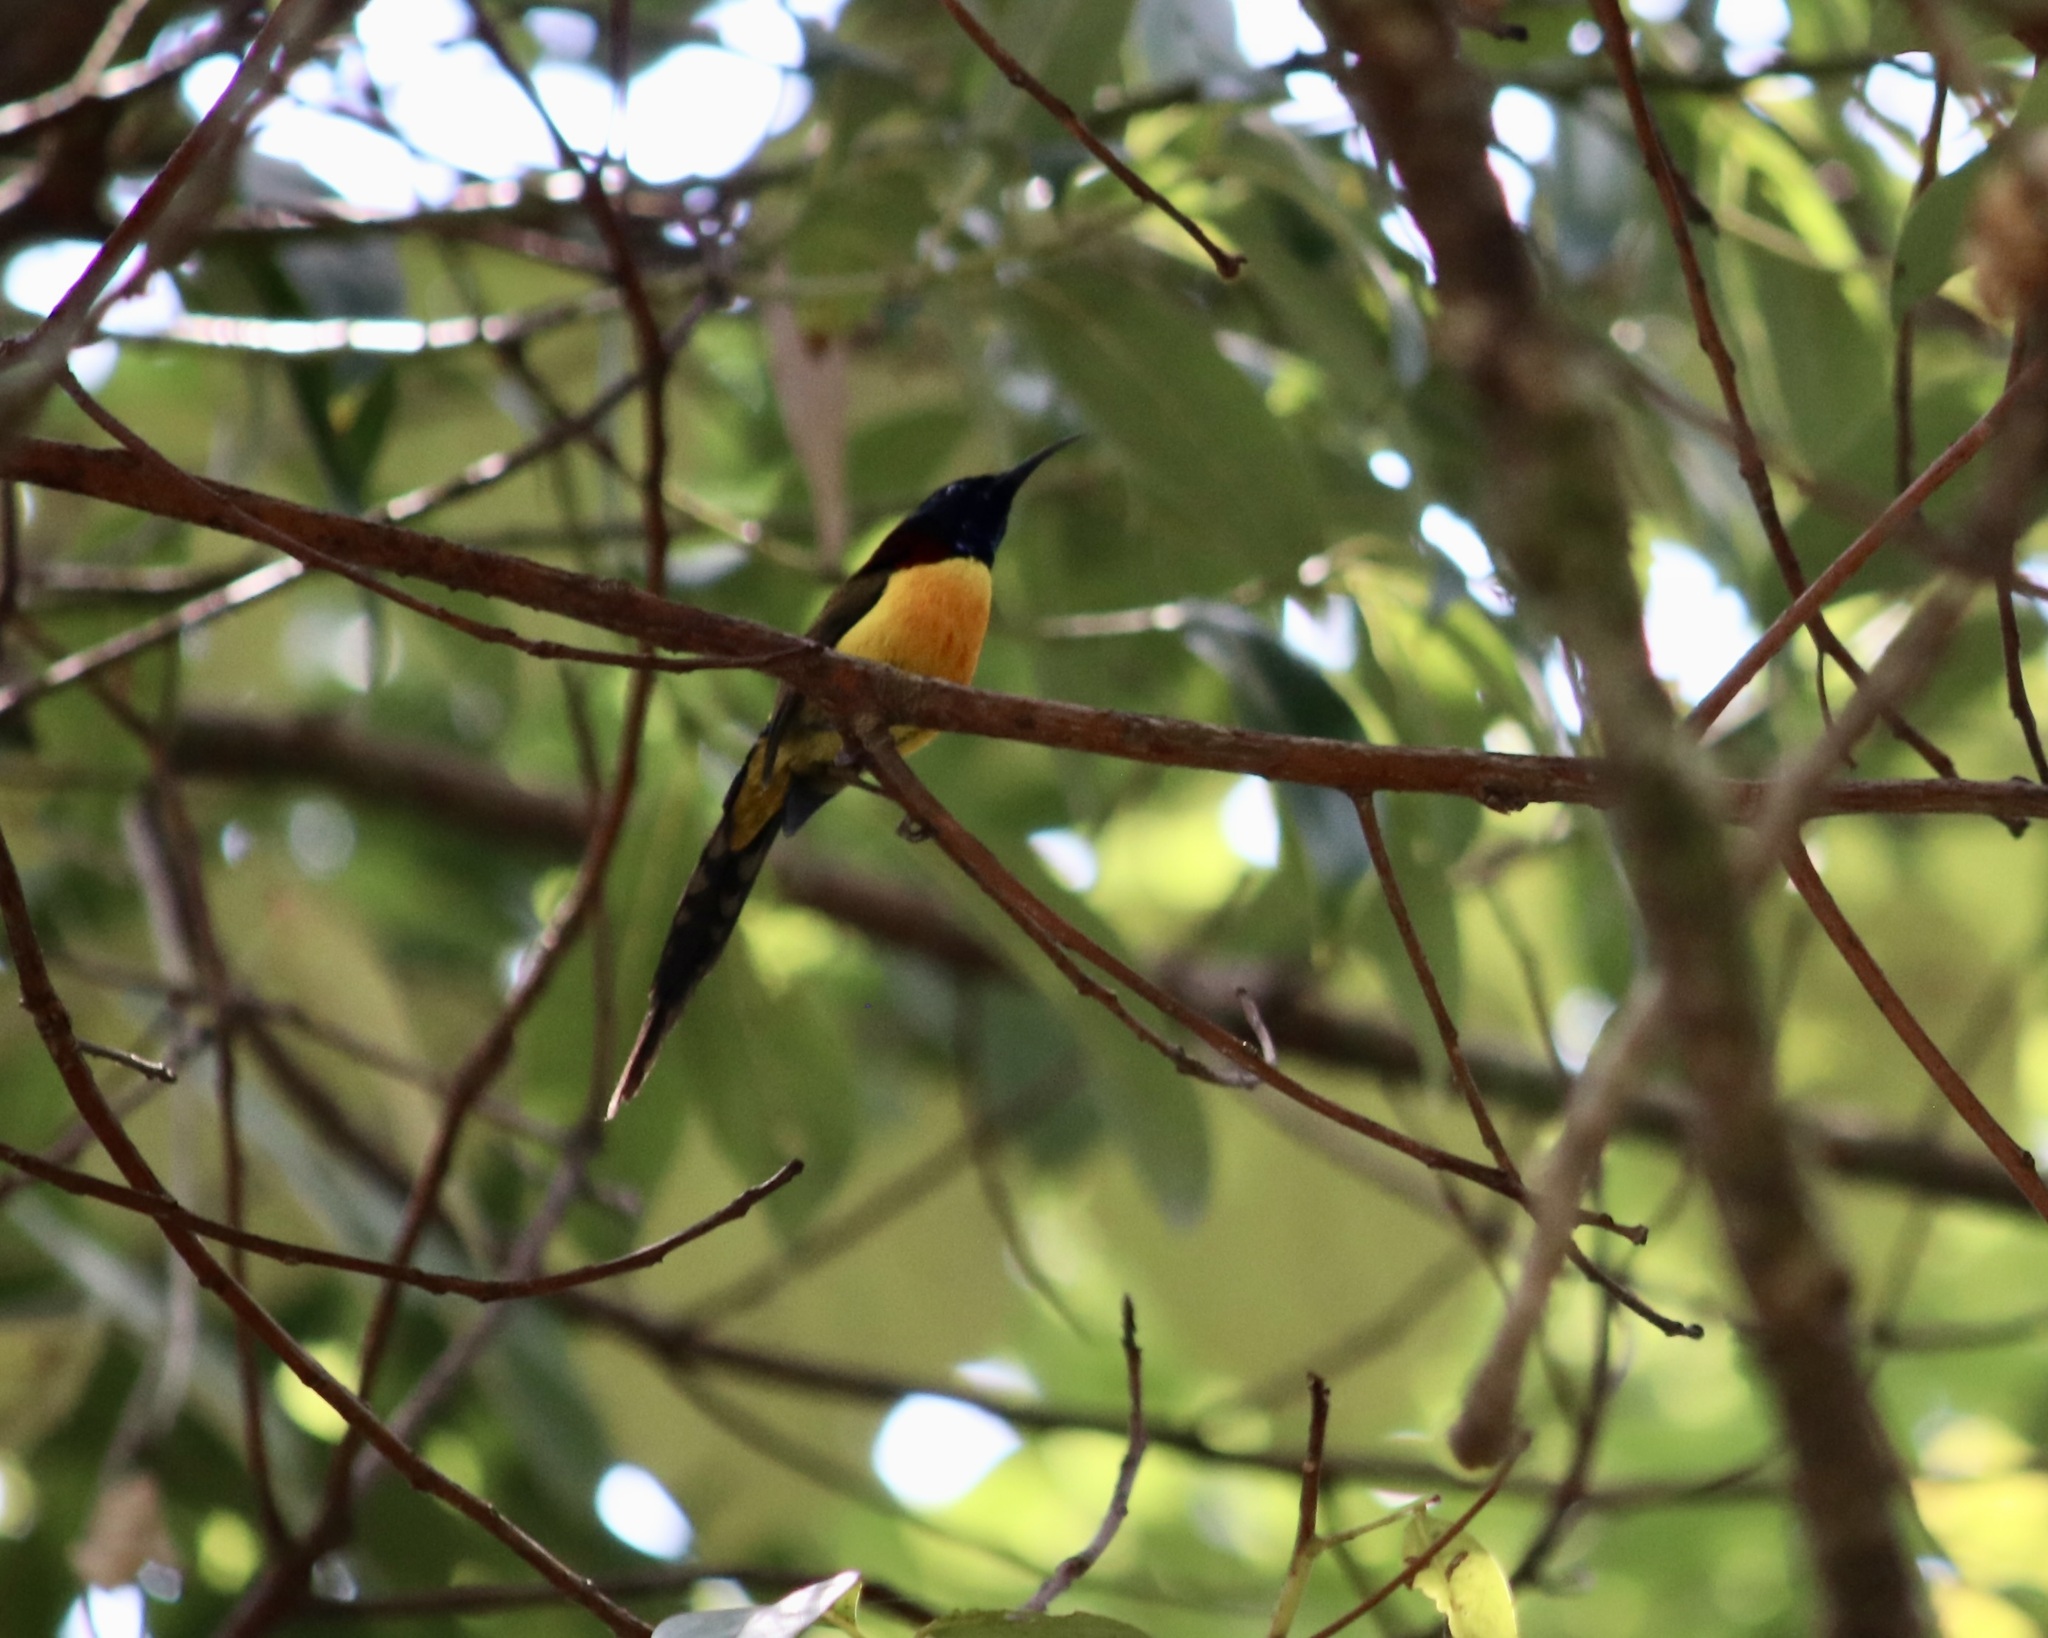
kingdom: Animalia
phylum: Chordata
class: Aves
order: Passeriformes
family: Nectariniidae
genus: Aethopyga
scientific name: Aethopyga nipalensis
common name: Green-tailed sunbird
